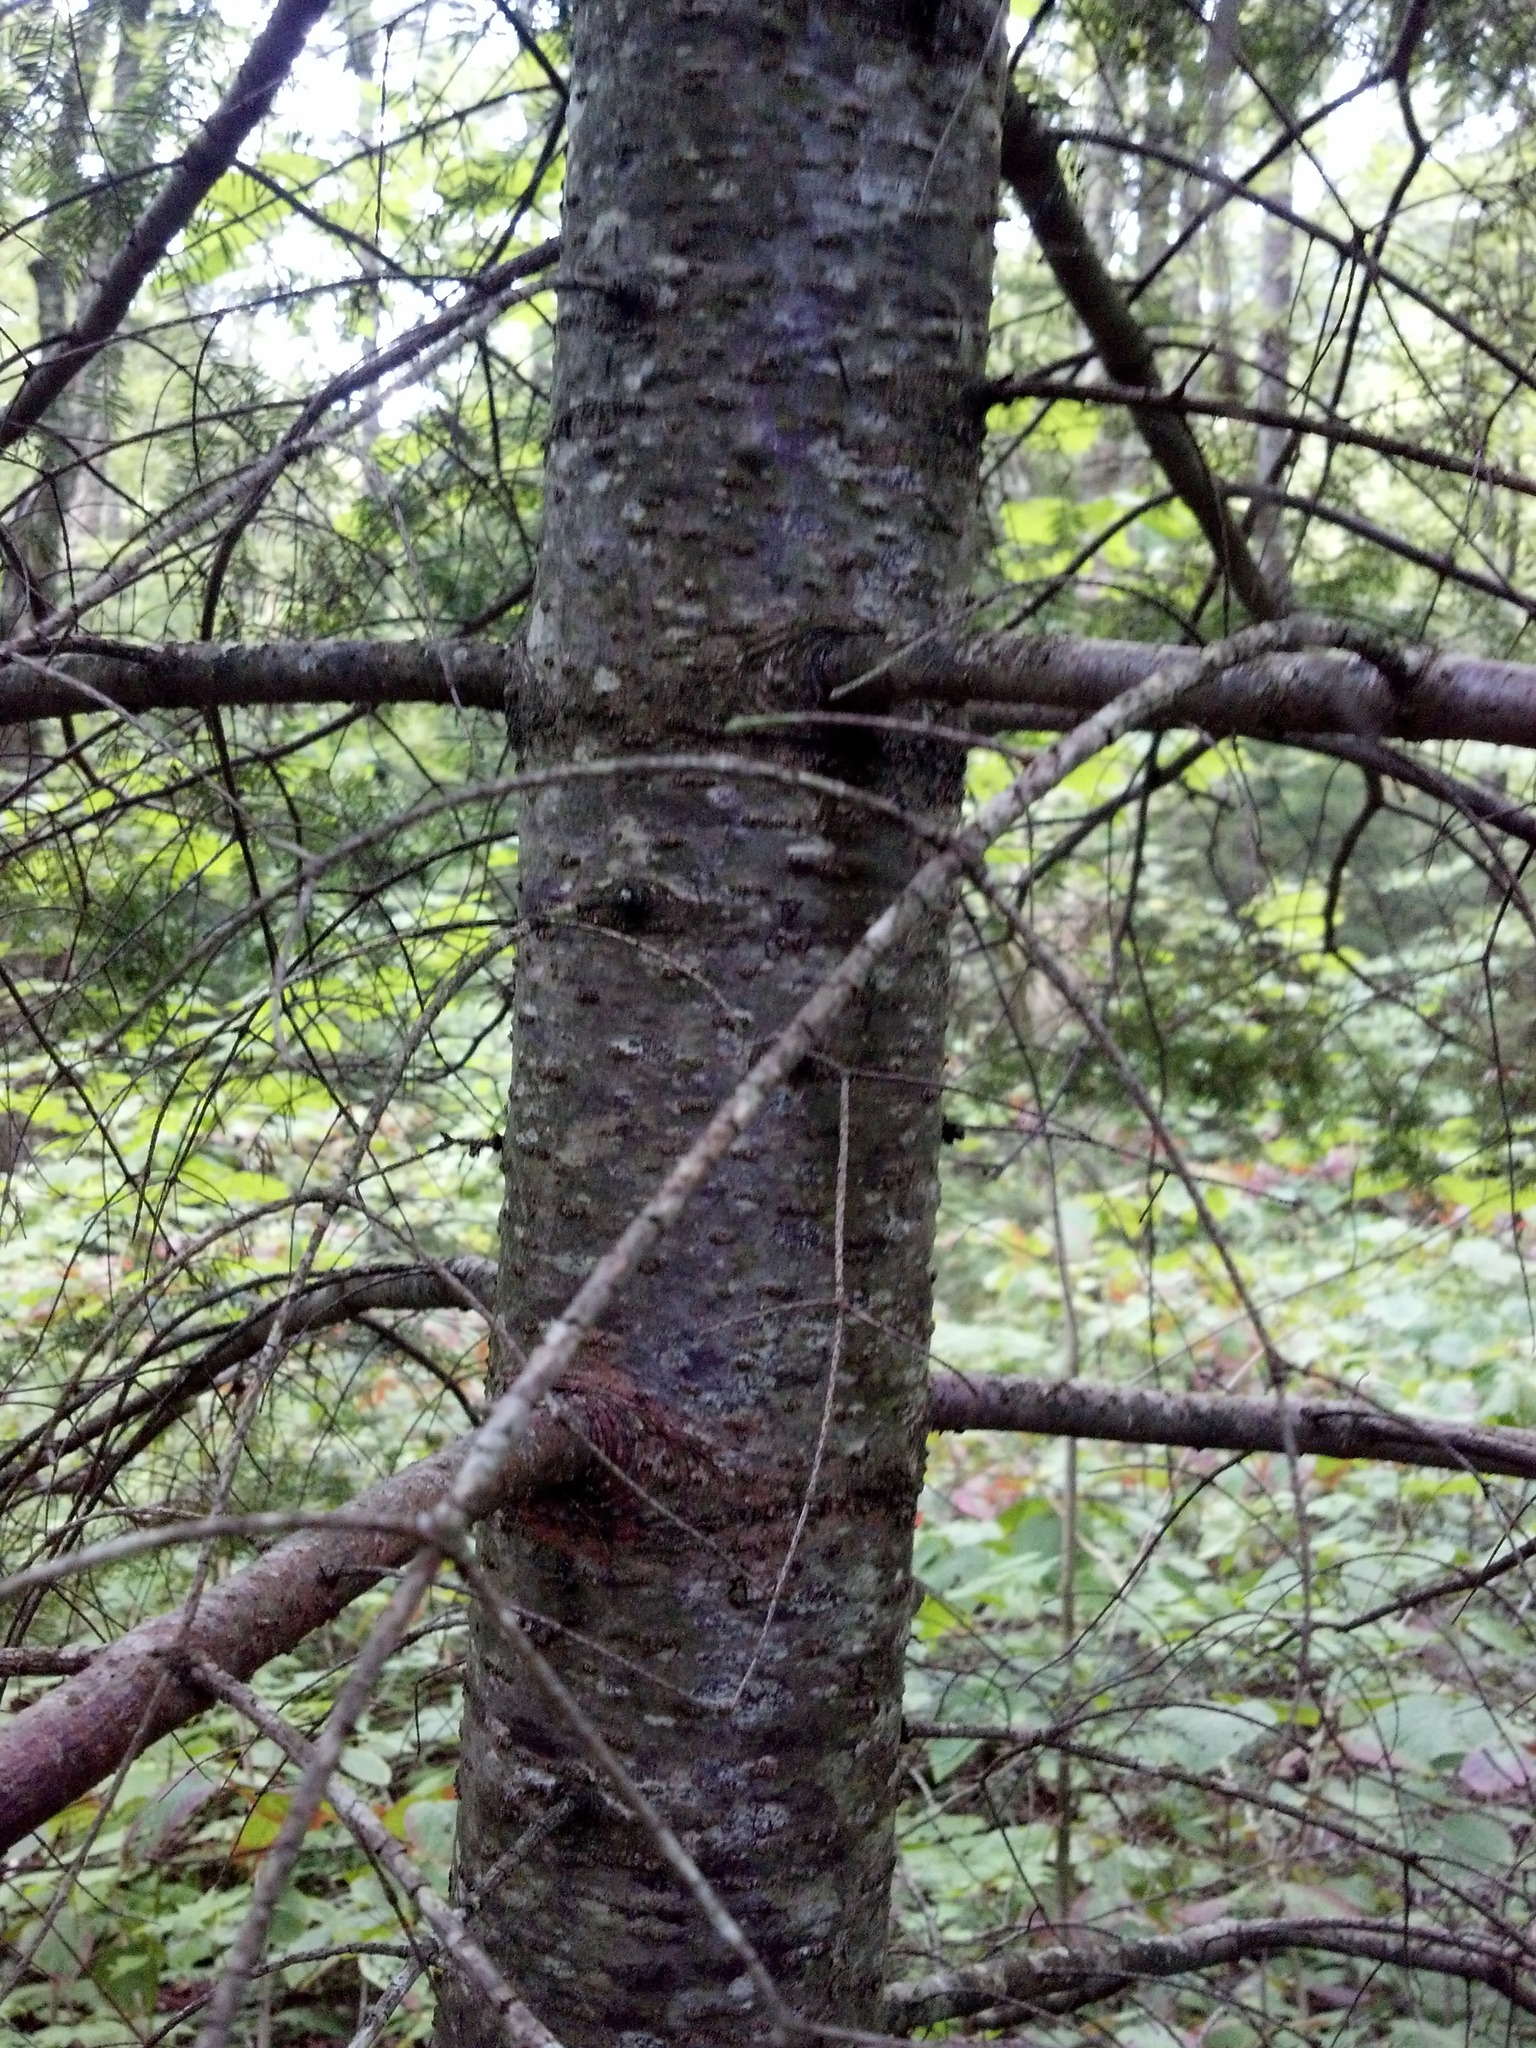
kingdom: Plantae
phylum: Tracheophyta
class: Pinopsida
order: Pinales
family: Pinaceae
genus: Abies
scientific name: Abies balsamea
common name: Balsam fir
